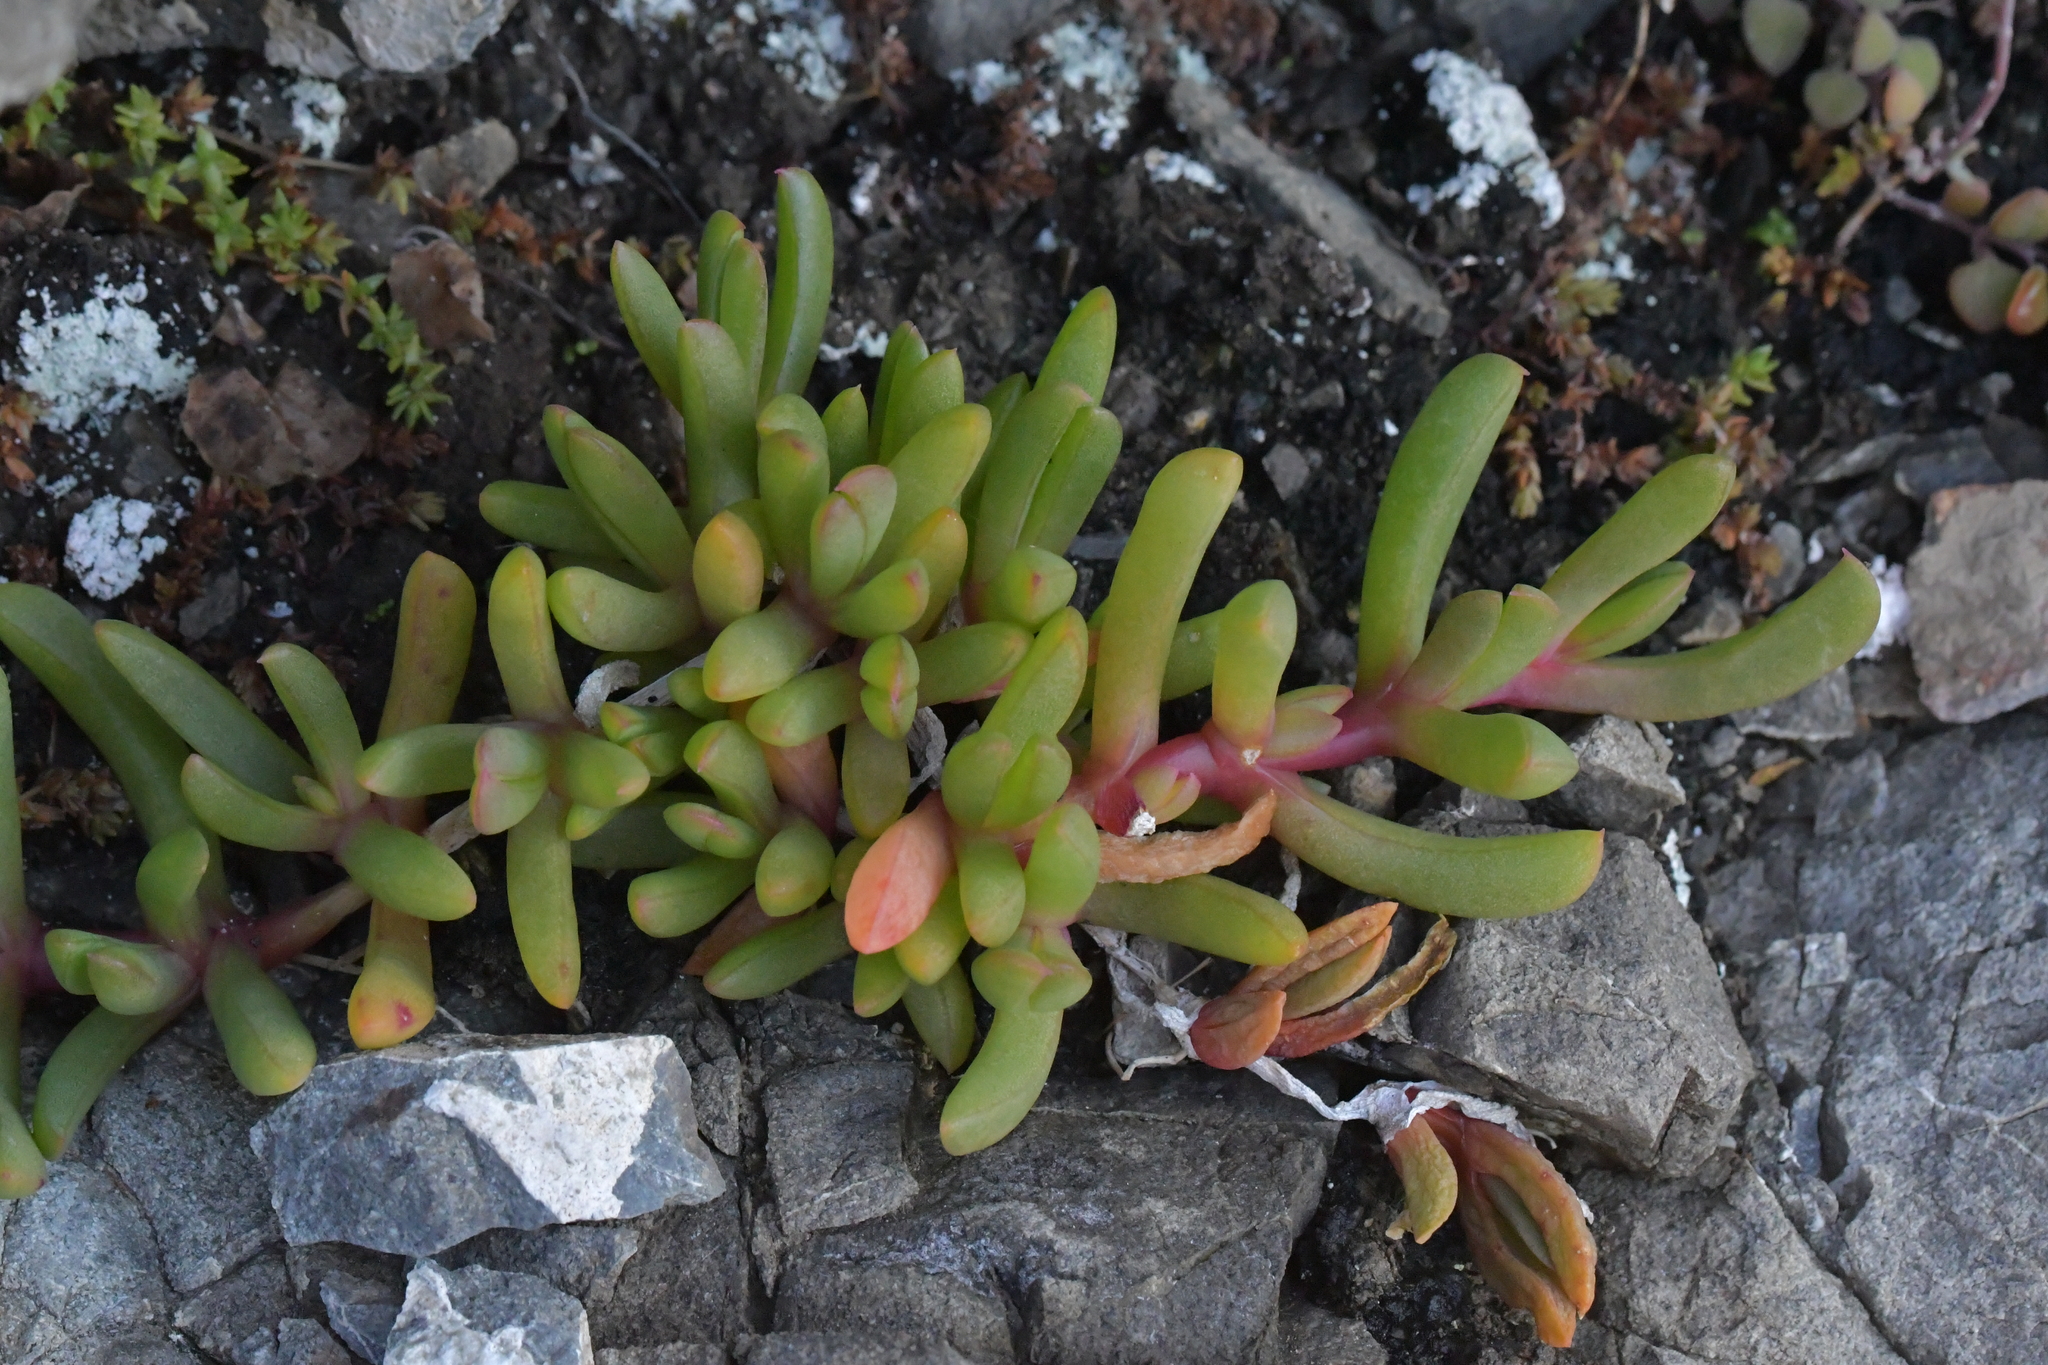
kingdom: Plantae
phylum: Tracheophyta
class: Magnoliopsida
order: Caryophyllales
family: Aizoaceae
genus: Disphyma
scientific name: Disphyma australe
